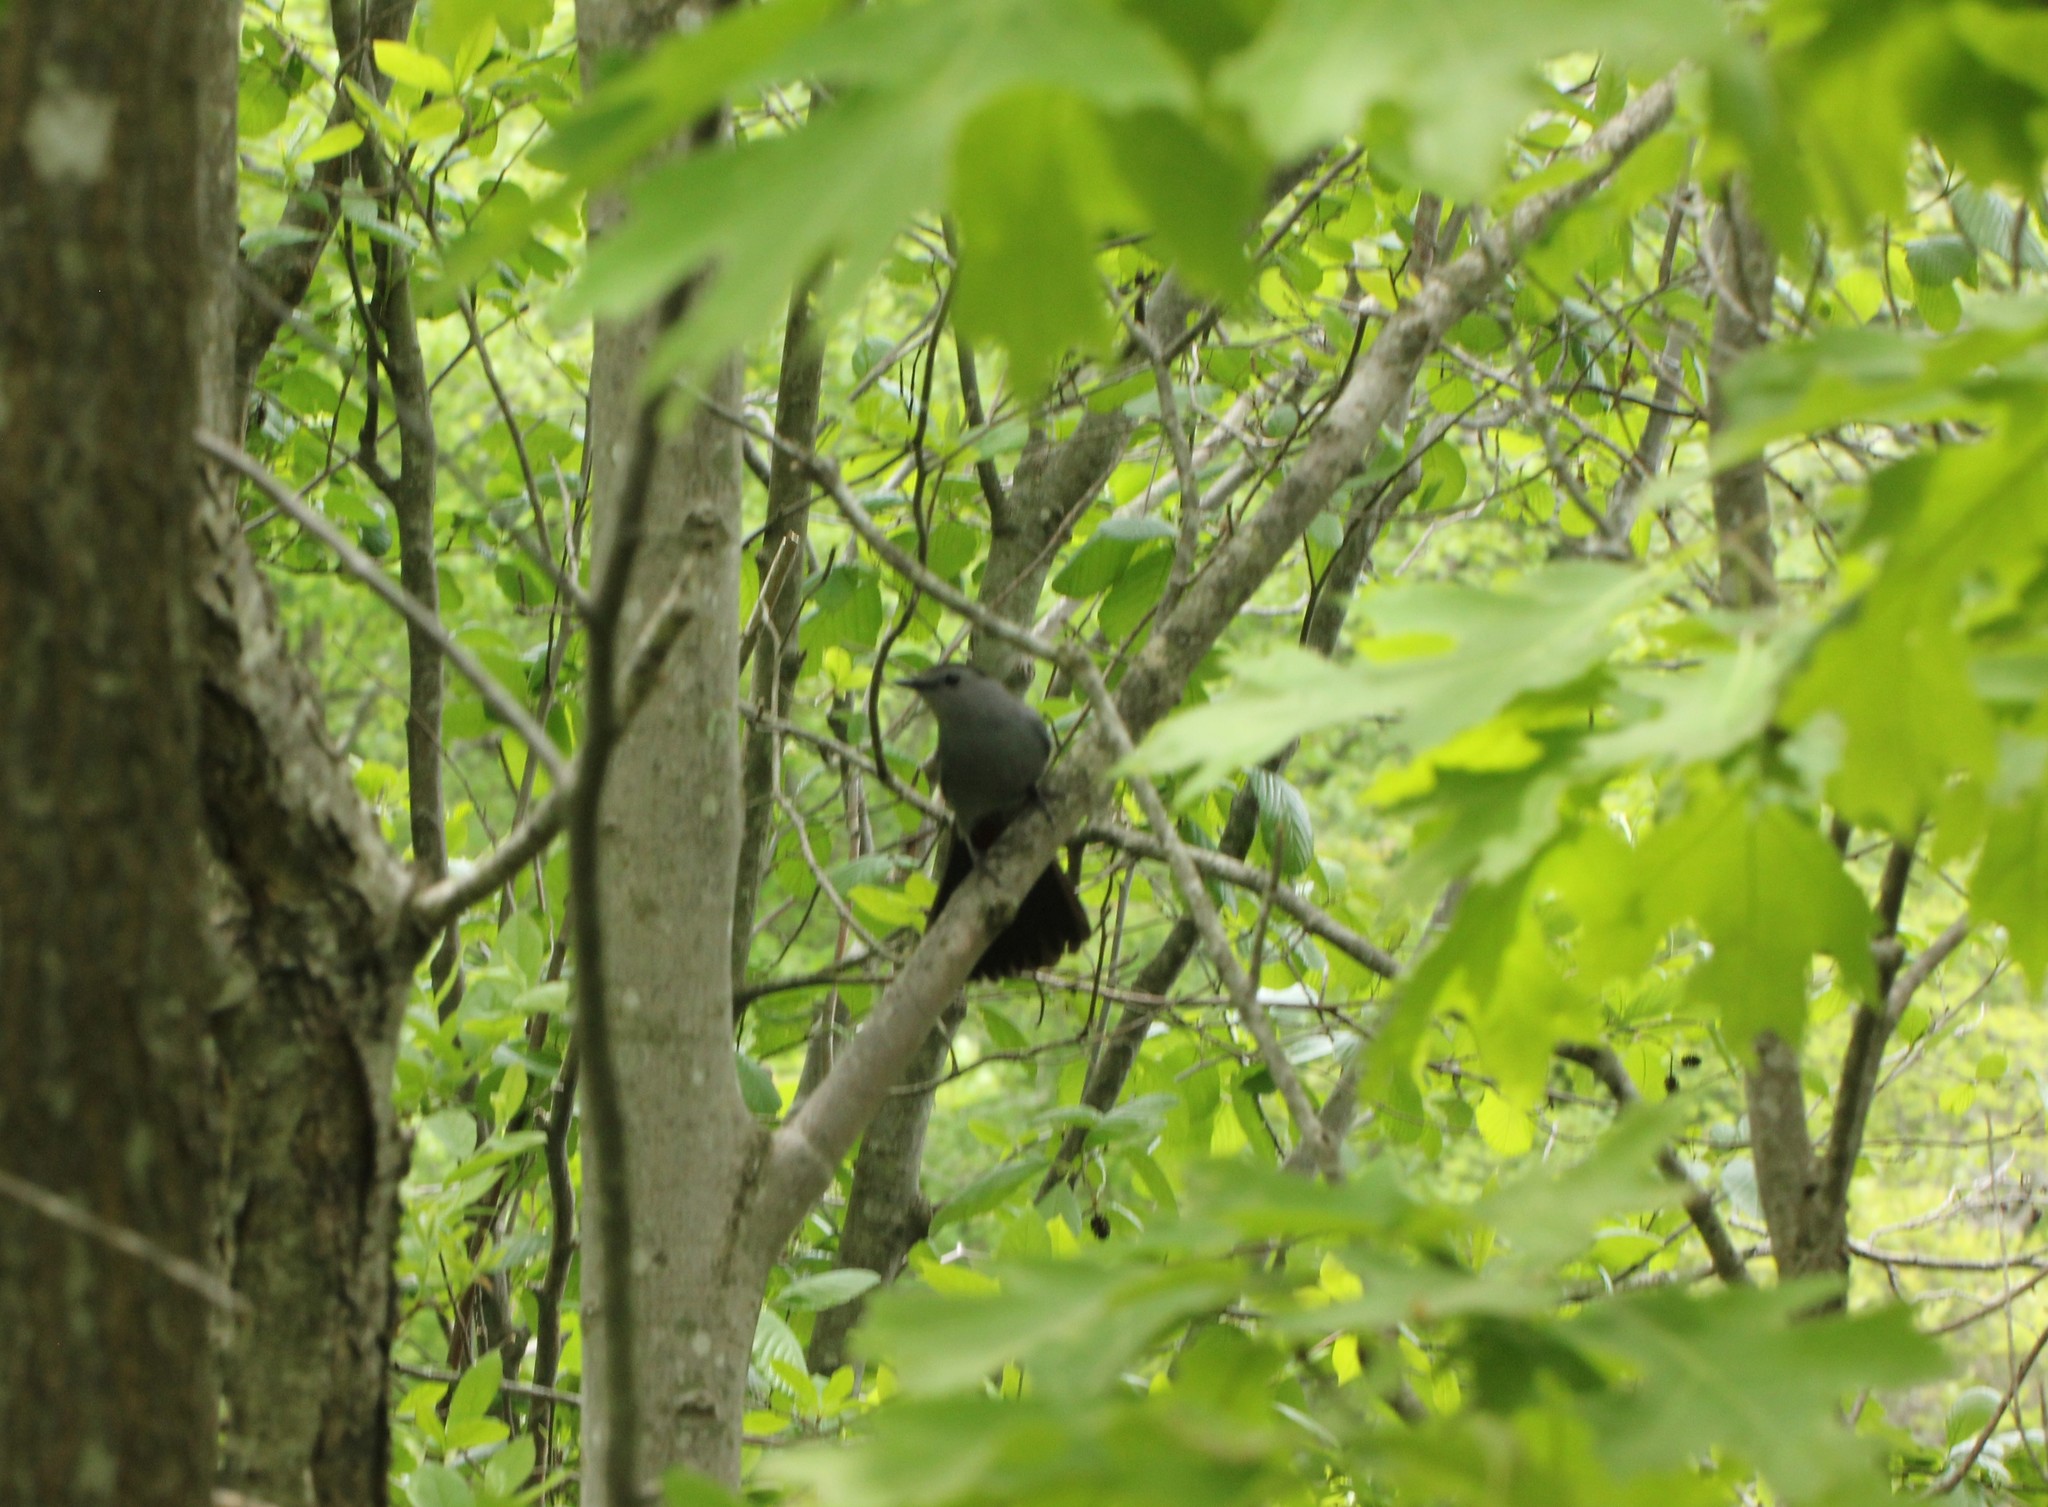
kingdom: Animalia
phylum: Chordata
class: Aves
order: Passeriformes
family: Mimidae
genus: Dumetella
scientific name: Dumetella carolinensis
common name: Gray catbird
